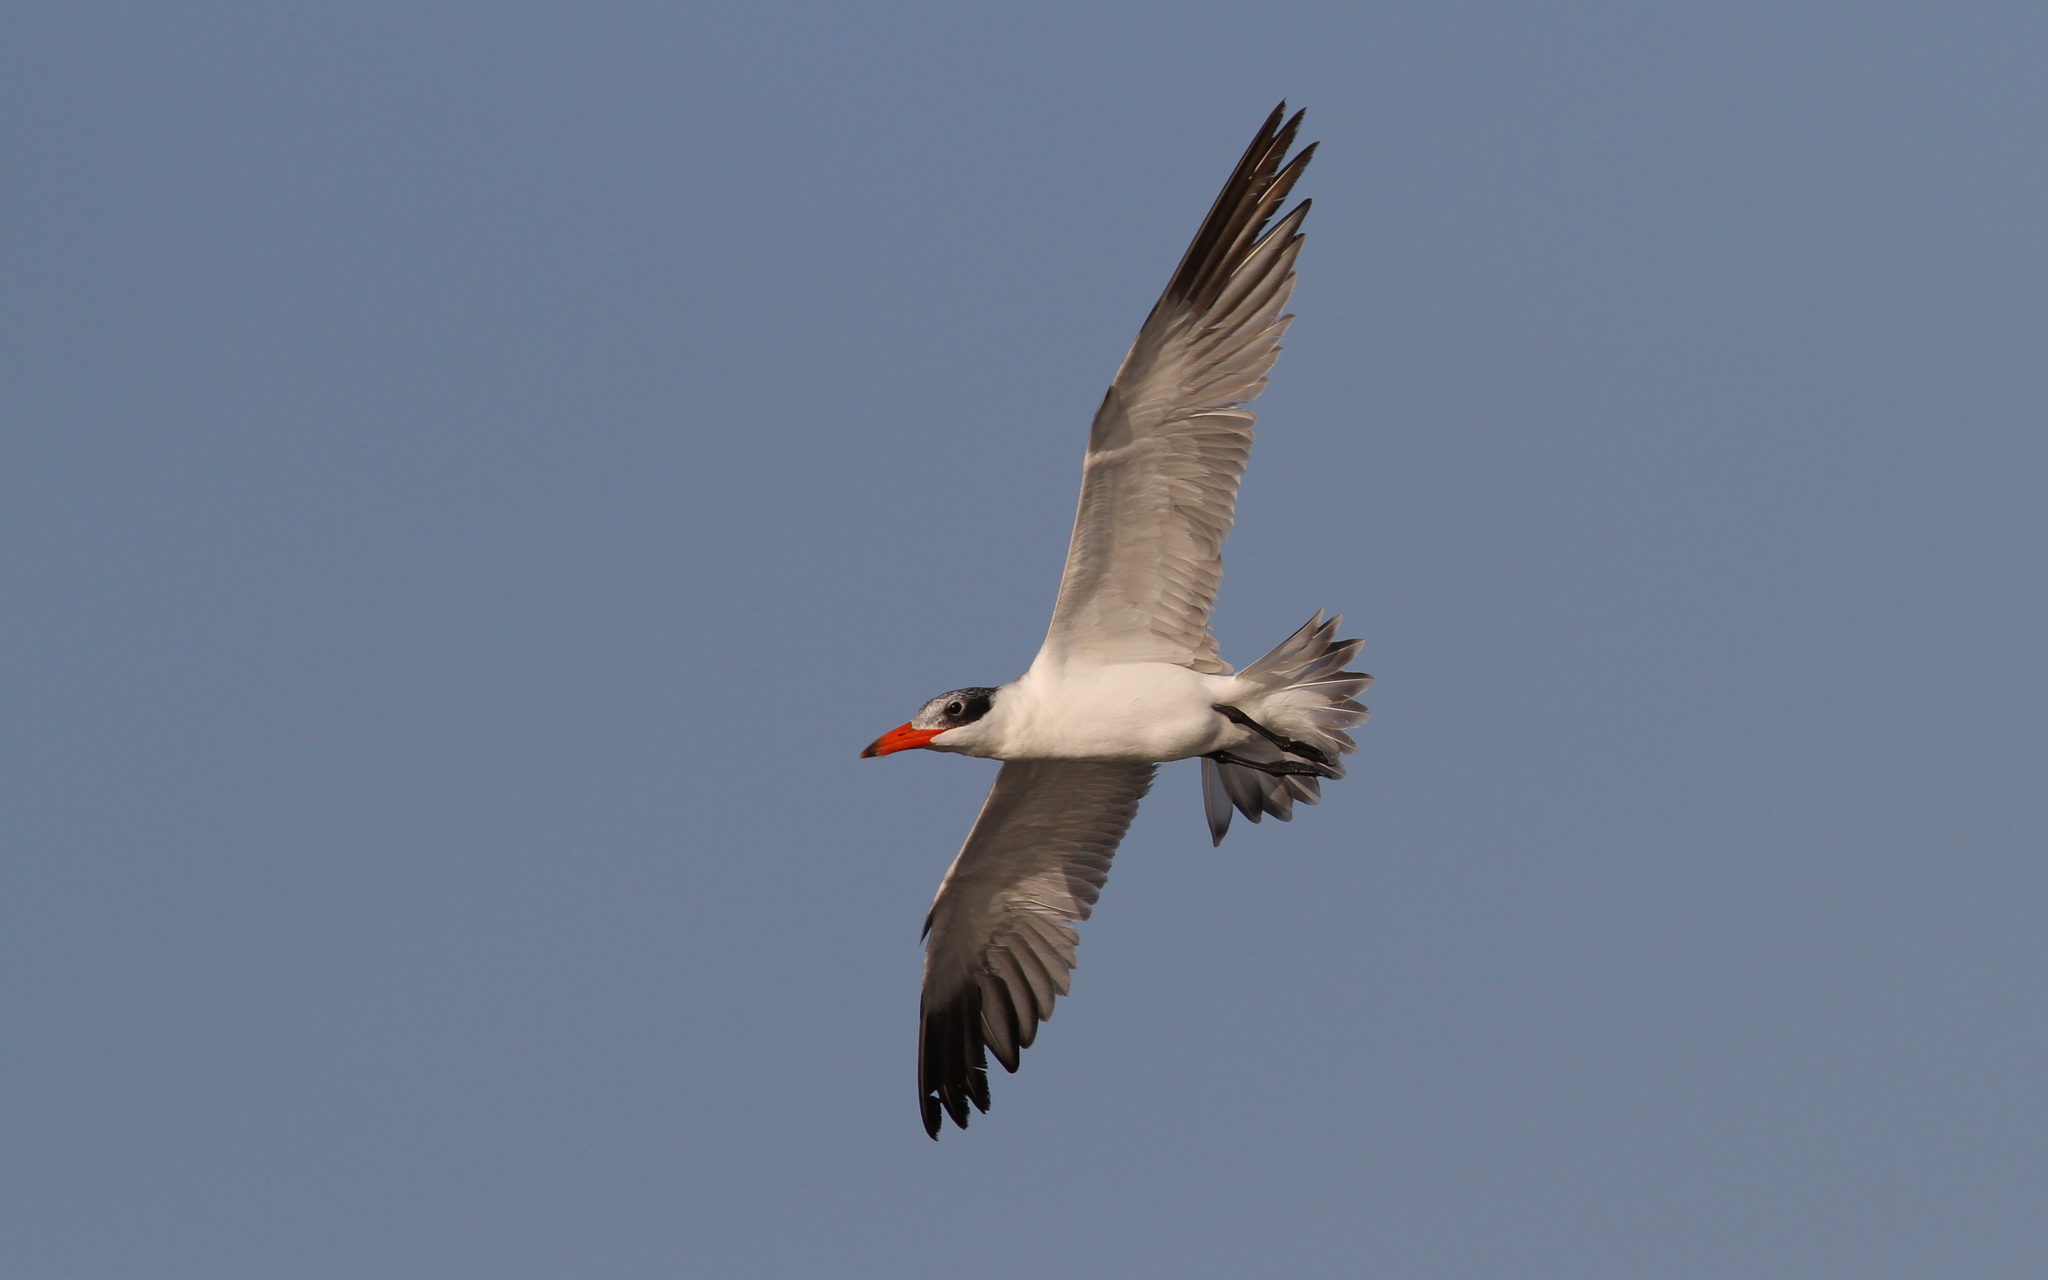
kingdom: Animalia
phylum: Chordata
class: Aves
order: Charadriiformes
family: Laridae
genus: Hydroprogne
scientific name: Hydroprogne caspia
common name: Caspian tern
